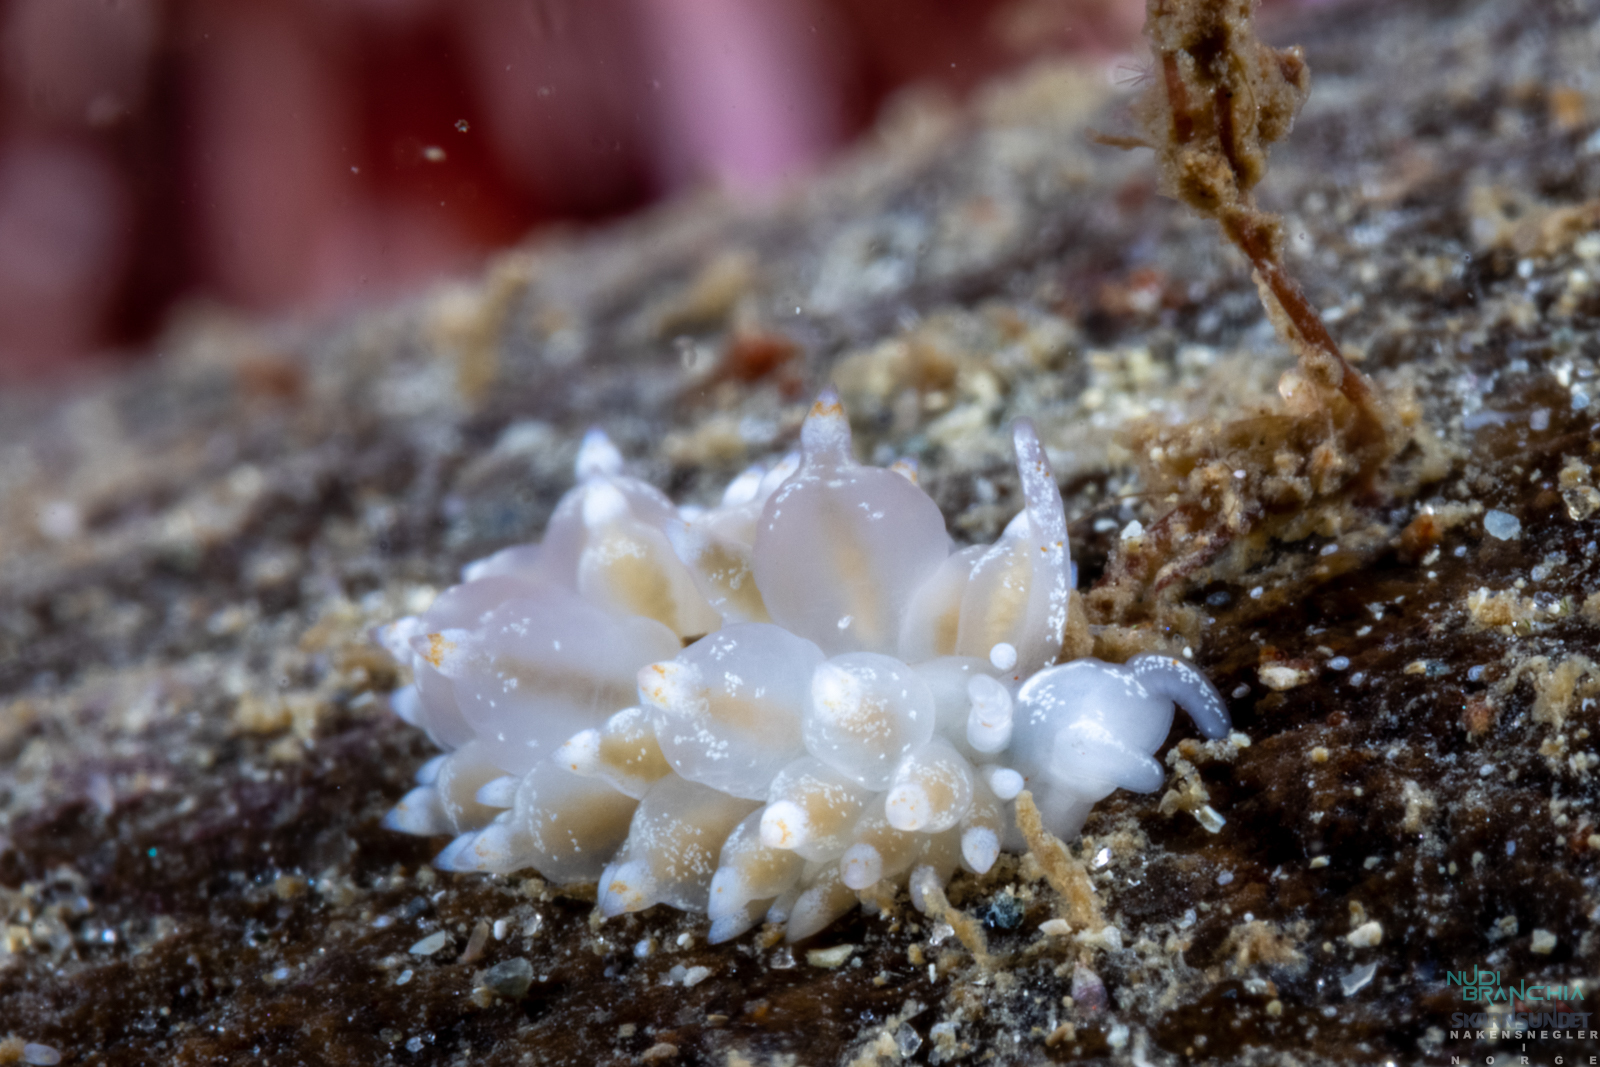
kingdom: Animalia
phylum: Mollusca
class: Gastropoda
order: Nudibranchia
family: Eubranchidae
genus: Amphorina
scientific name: Amphorina pallida
